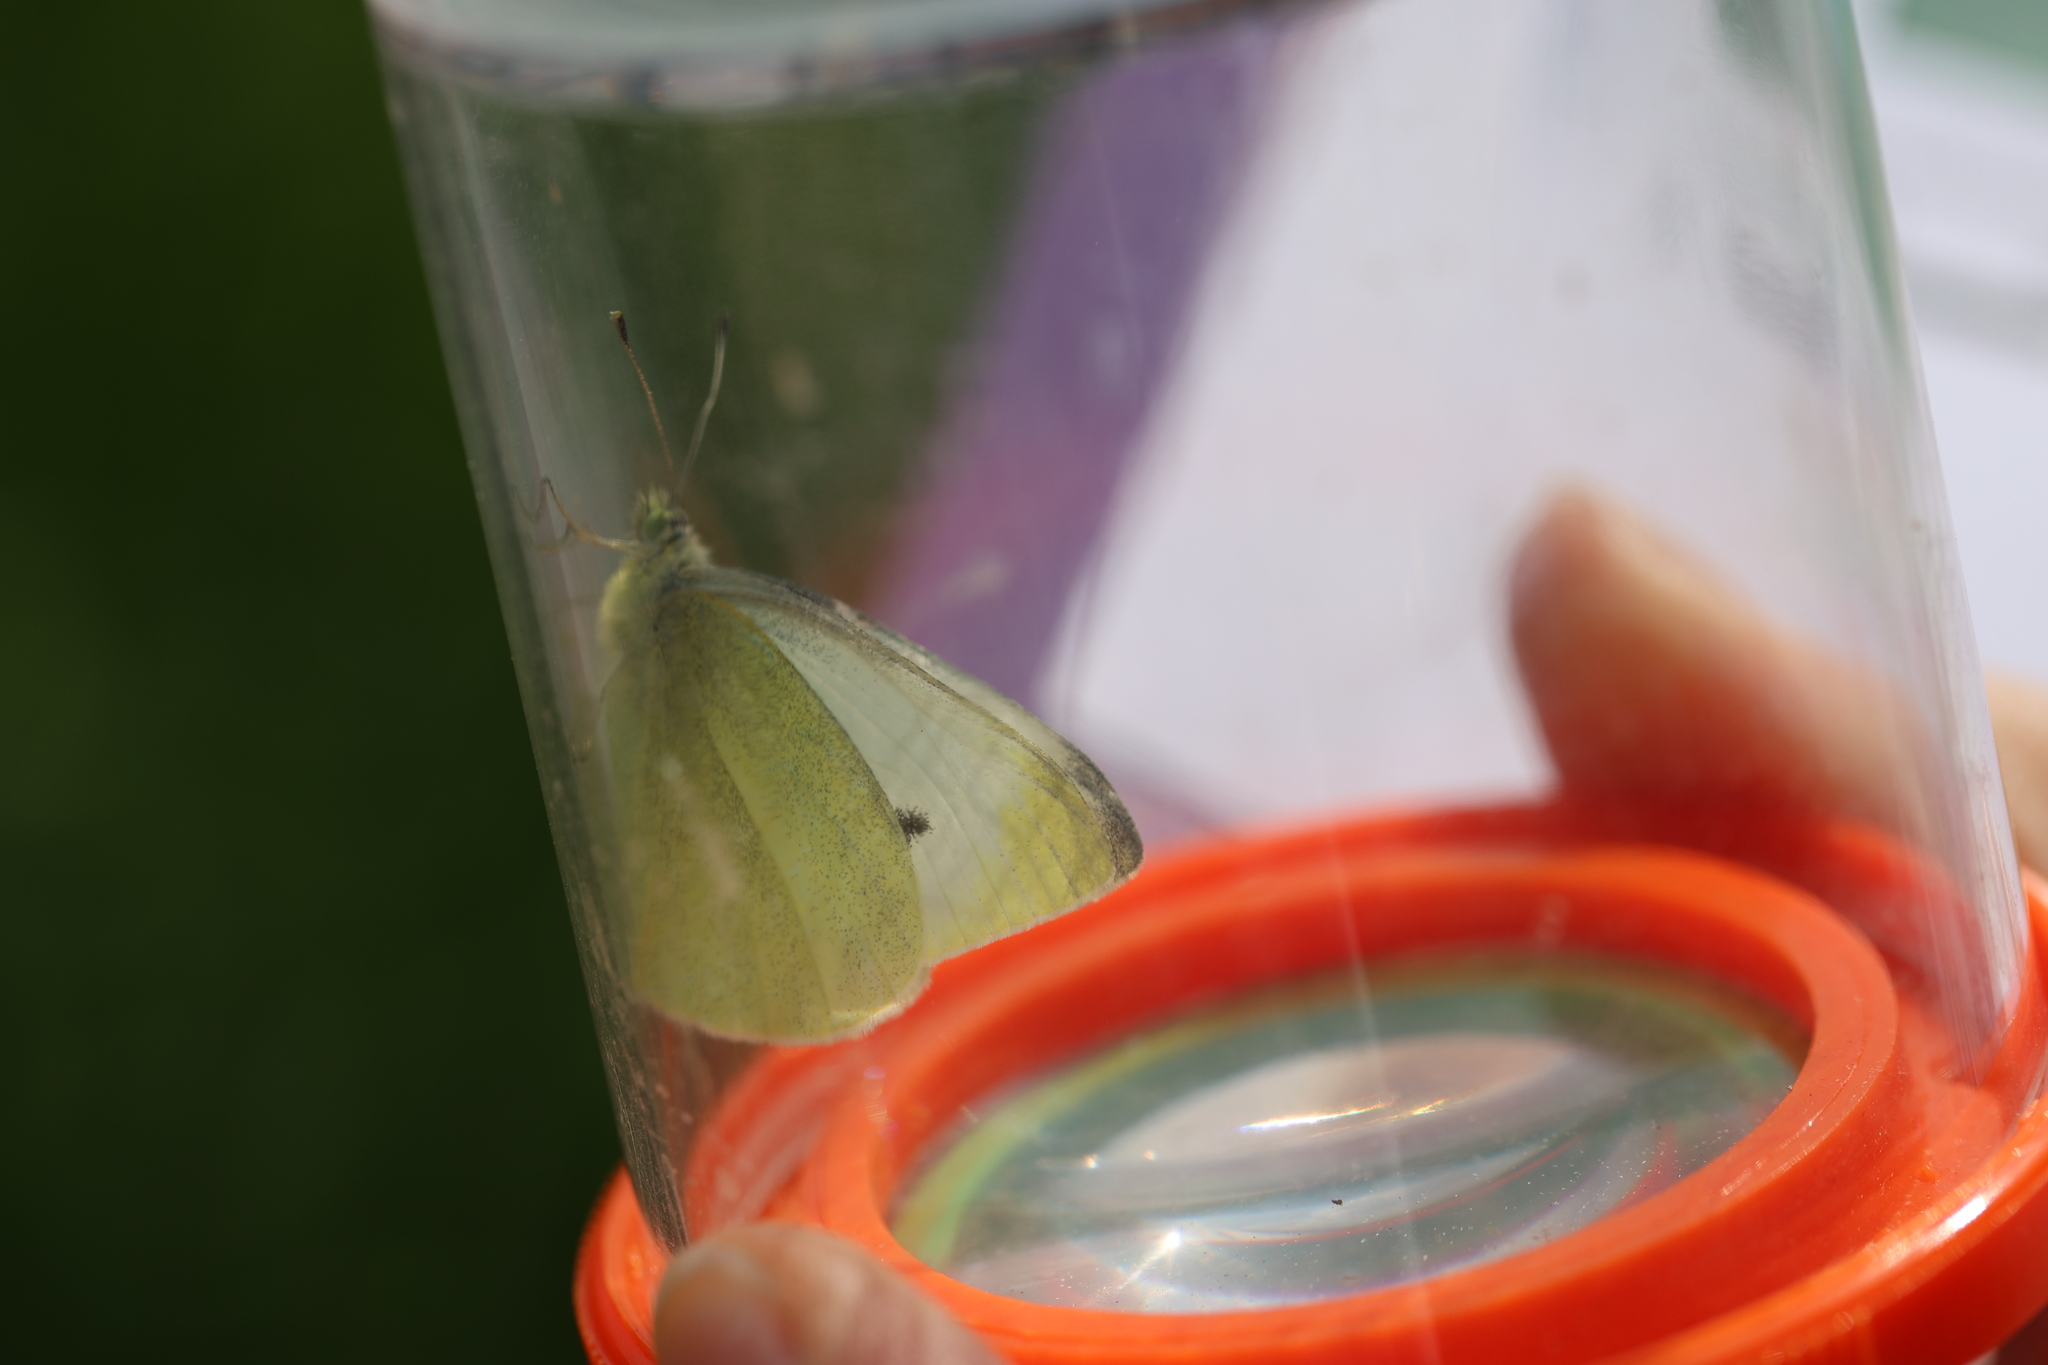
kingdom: Animalia
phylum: Arthropoda
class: Insecta
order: Lepidoptera
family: Pieridae
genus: Pieris
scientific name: Pieris rapae
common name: Small white
